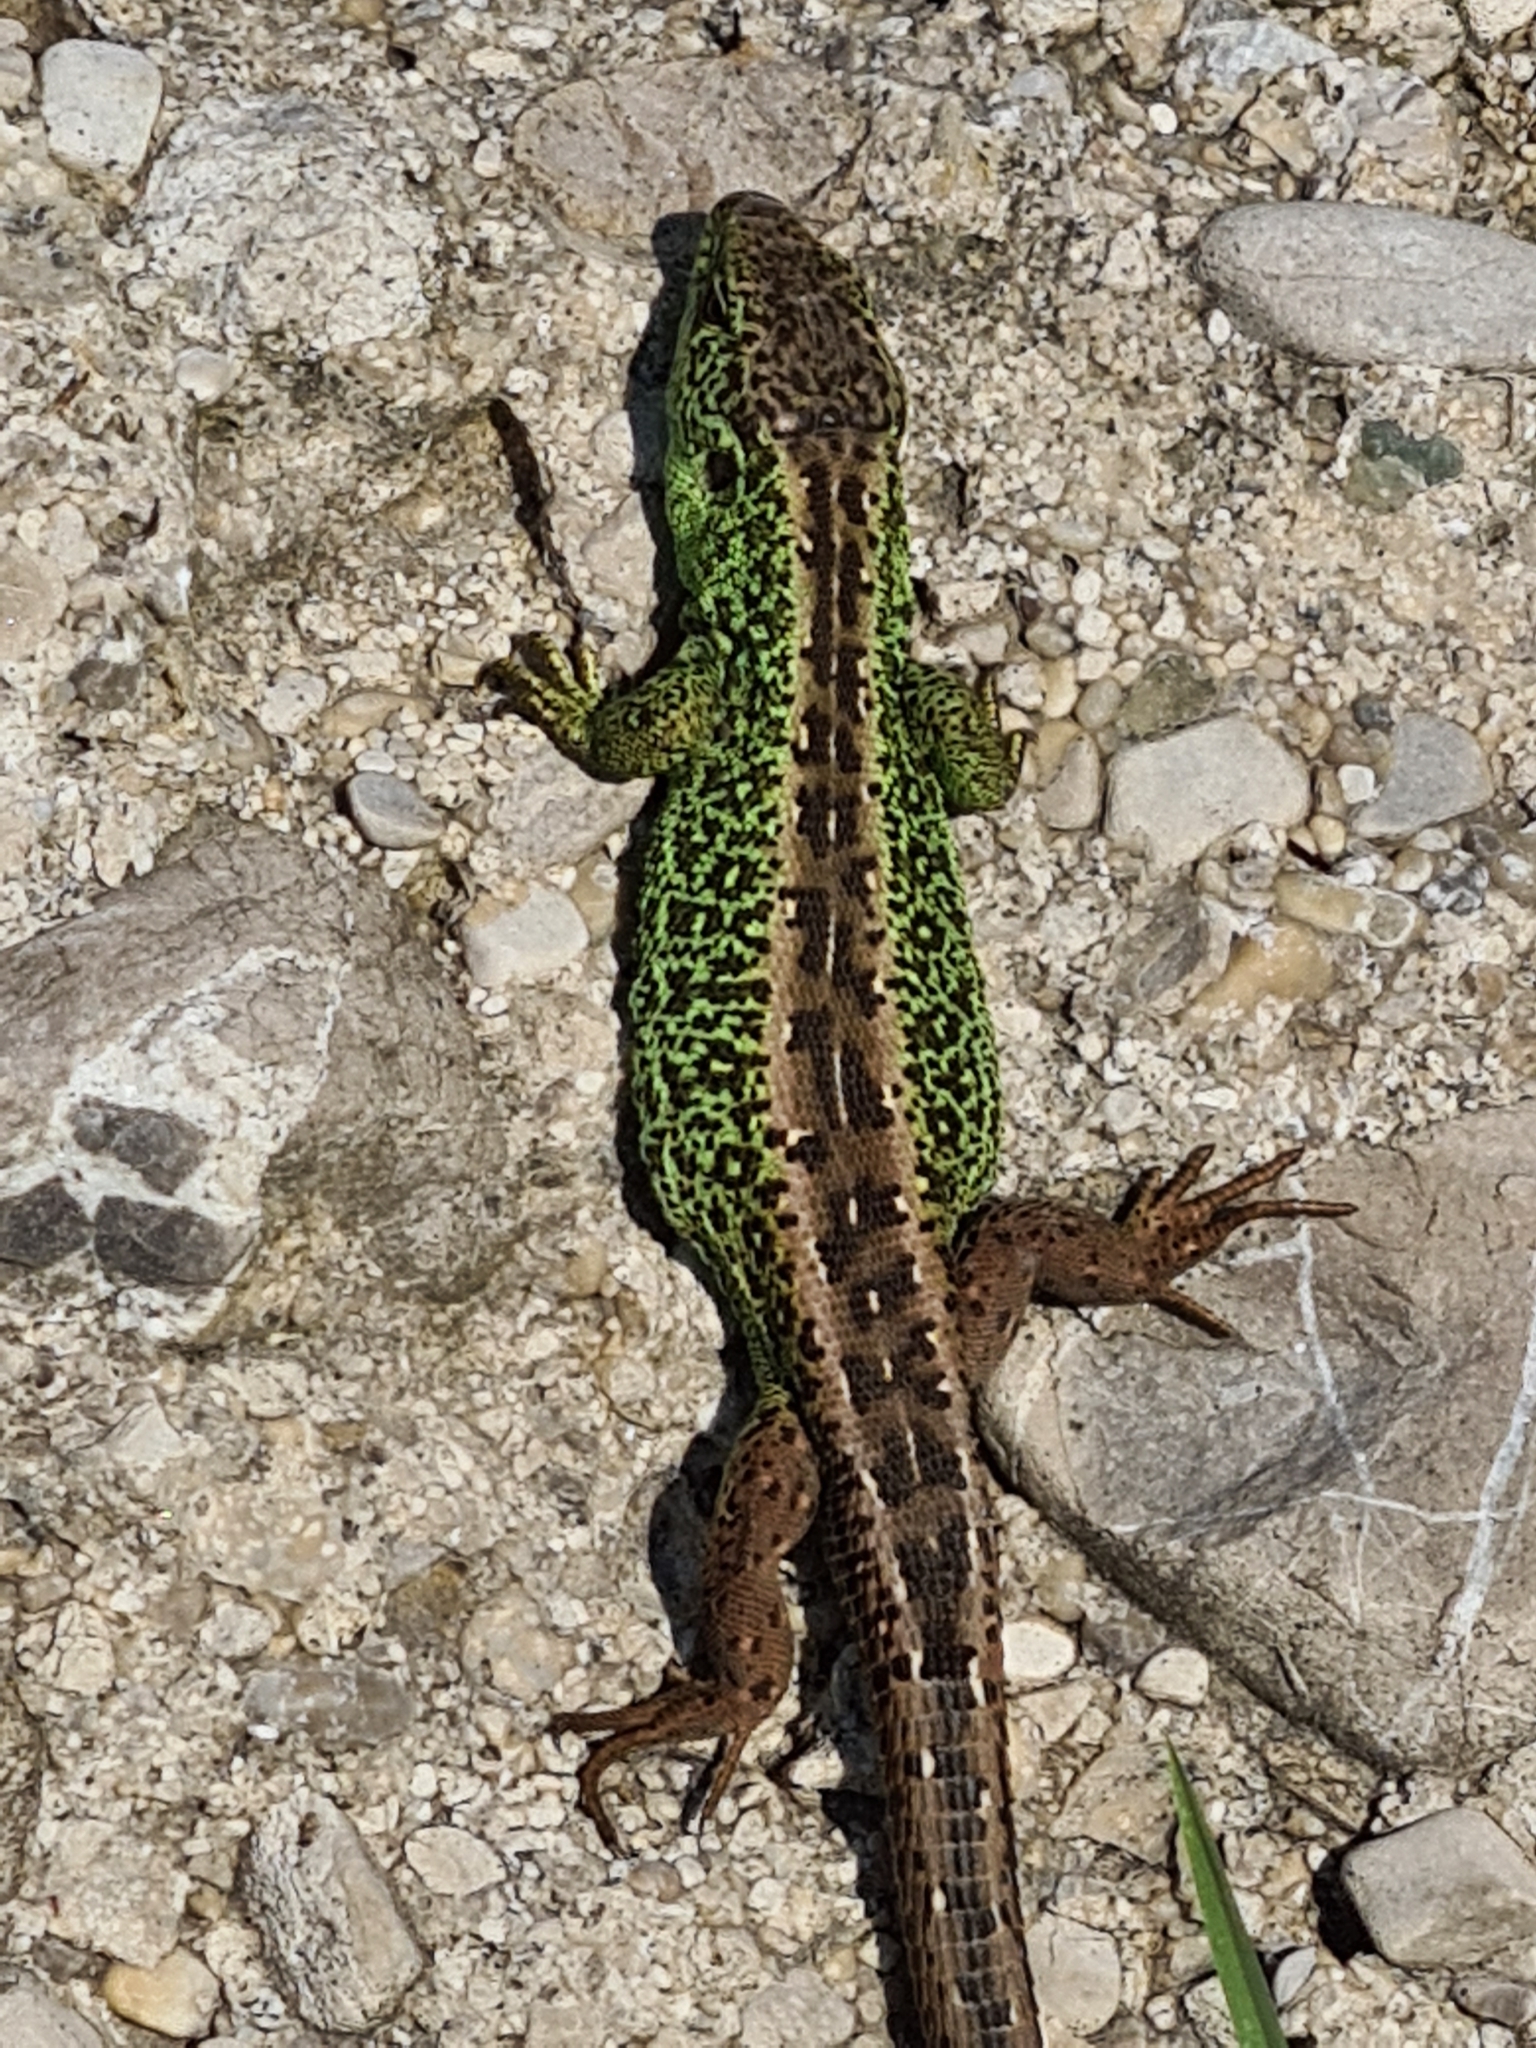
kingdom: Animalia
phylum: Chordata
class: Squamata
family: Lacertidae
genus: Lacerta
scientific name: Lacerta agilis
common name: Sand lizard
